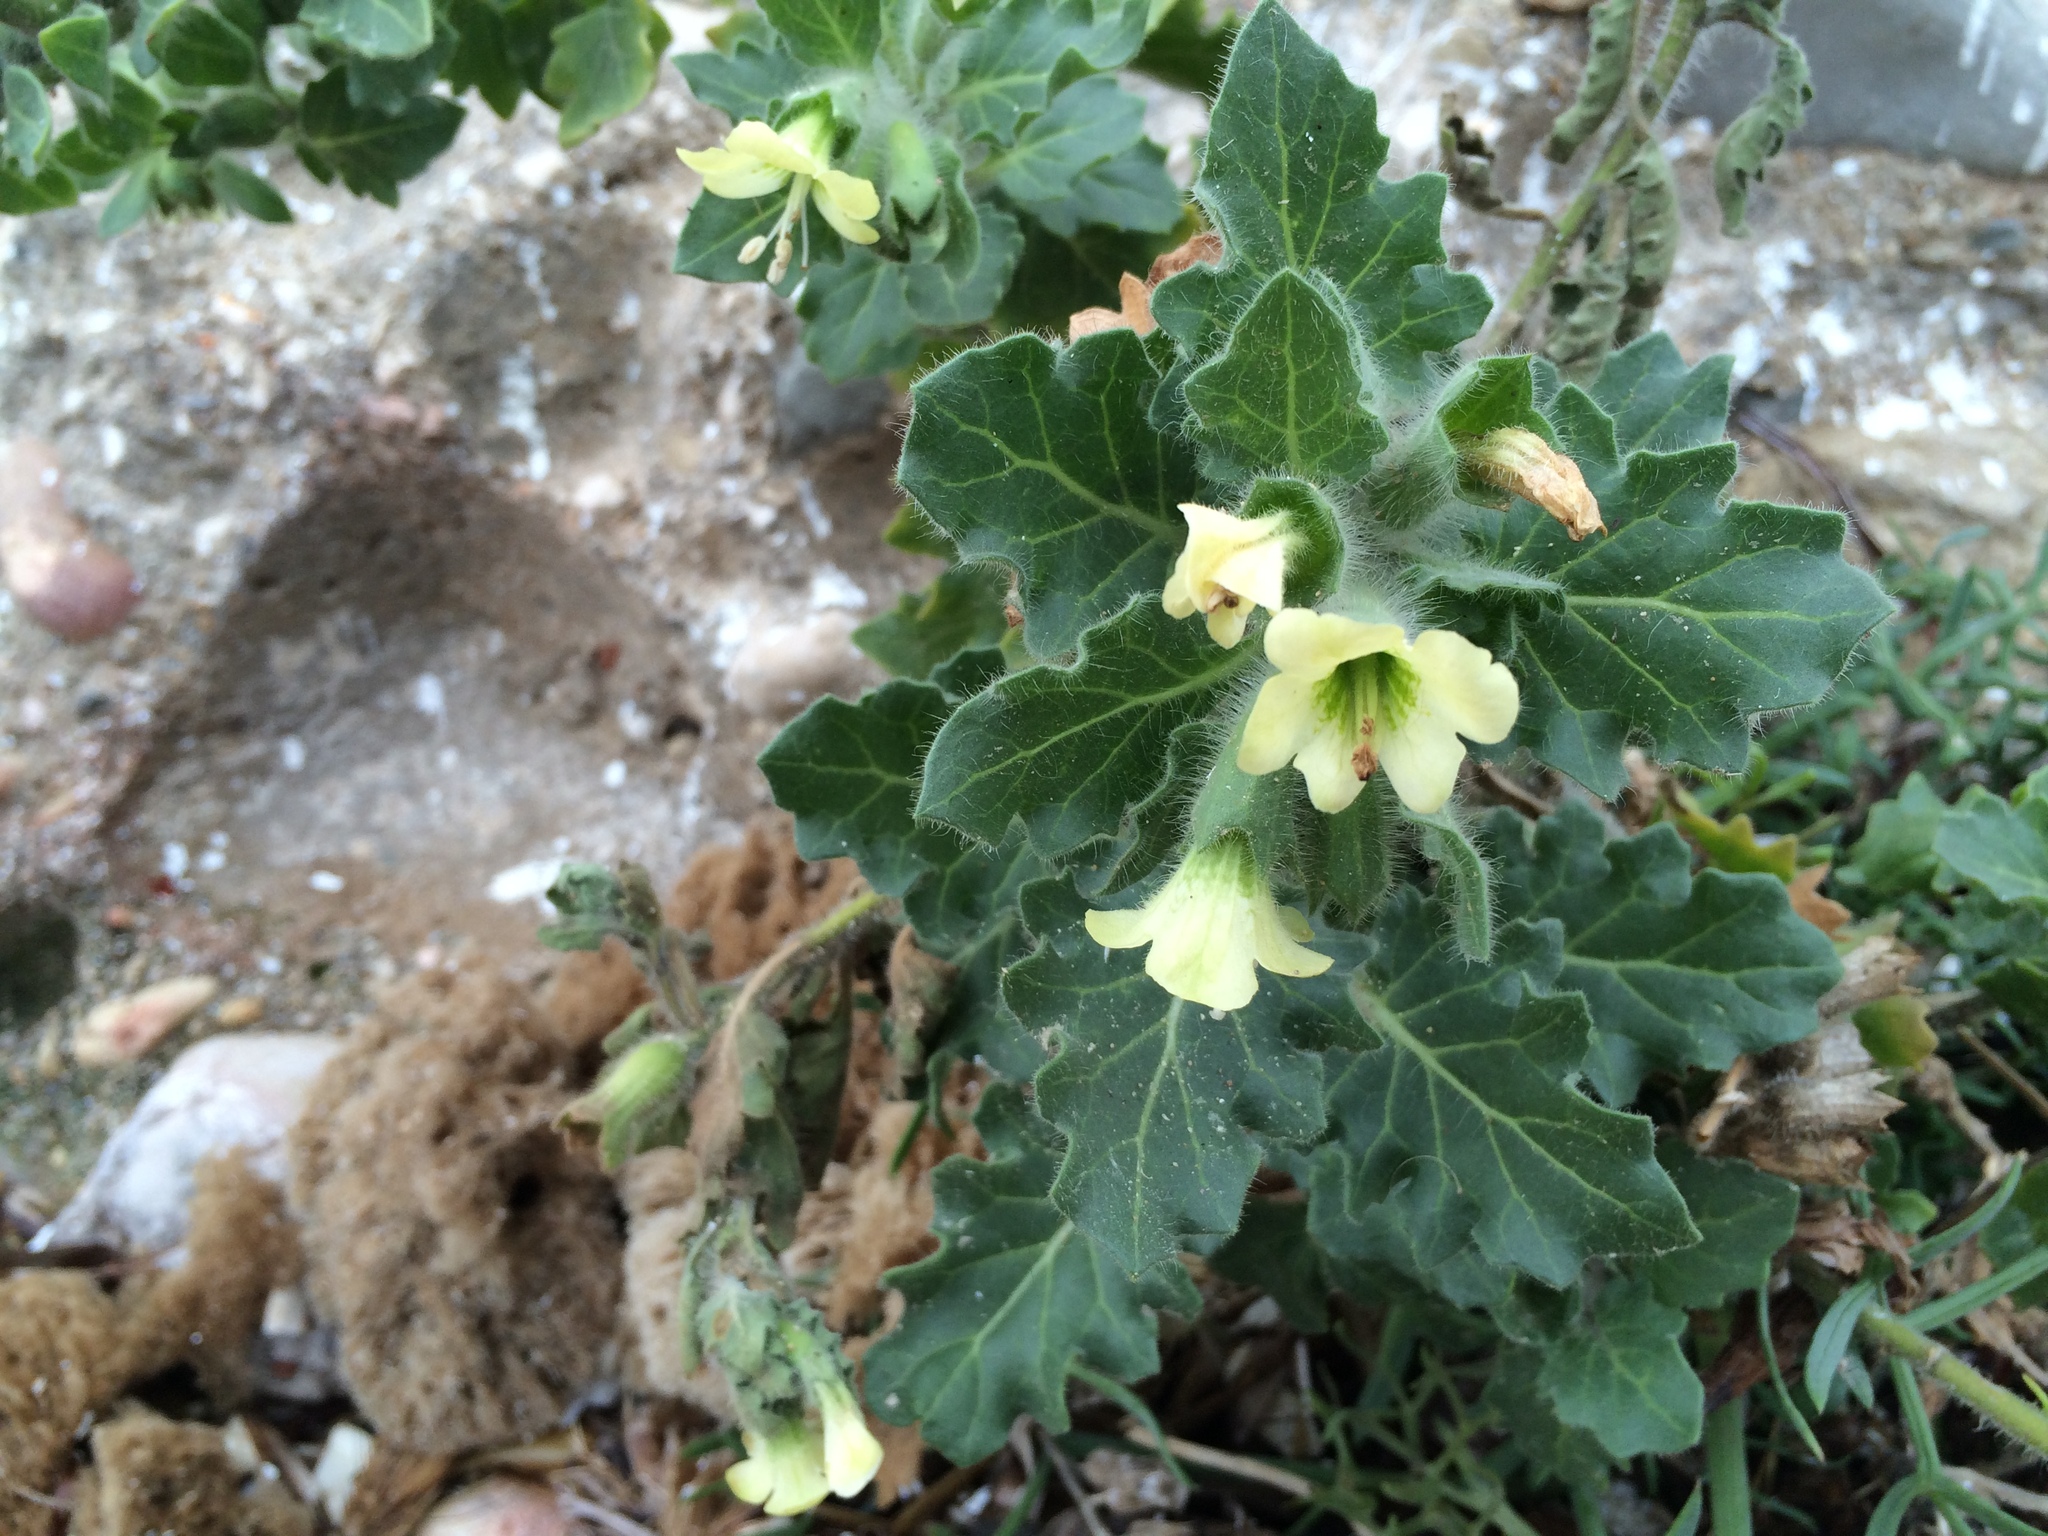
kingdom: Plantae
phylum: Tracheophyta
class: Magnoliopsida
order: Solanales
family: Solanaceae
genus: Hyoscyamus
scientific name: Hyoscyamus albus
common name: White henbane
